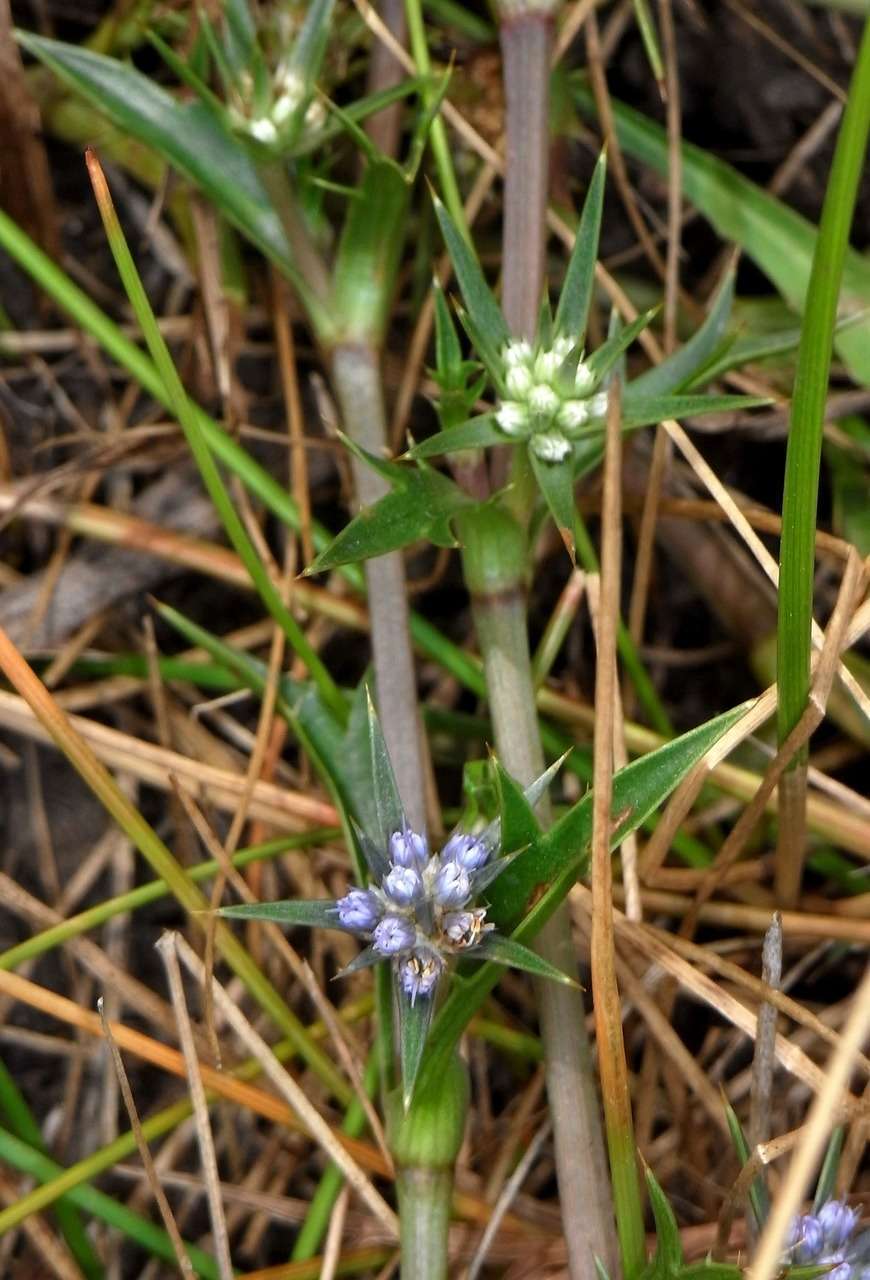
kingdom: Plantae
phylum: Tracheophyta
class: Magnoliopsida
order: Apiales
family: Apiaceae
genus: Eryngium
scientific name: Eryngium vesiculosum
